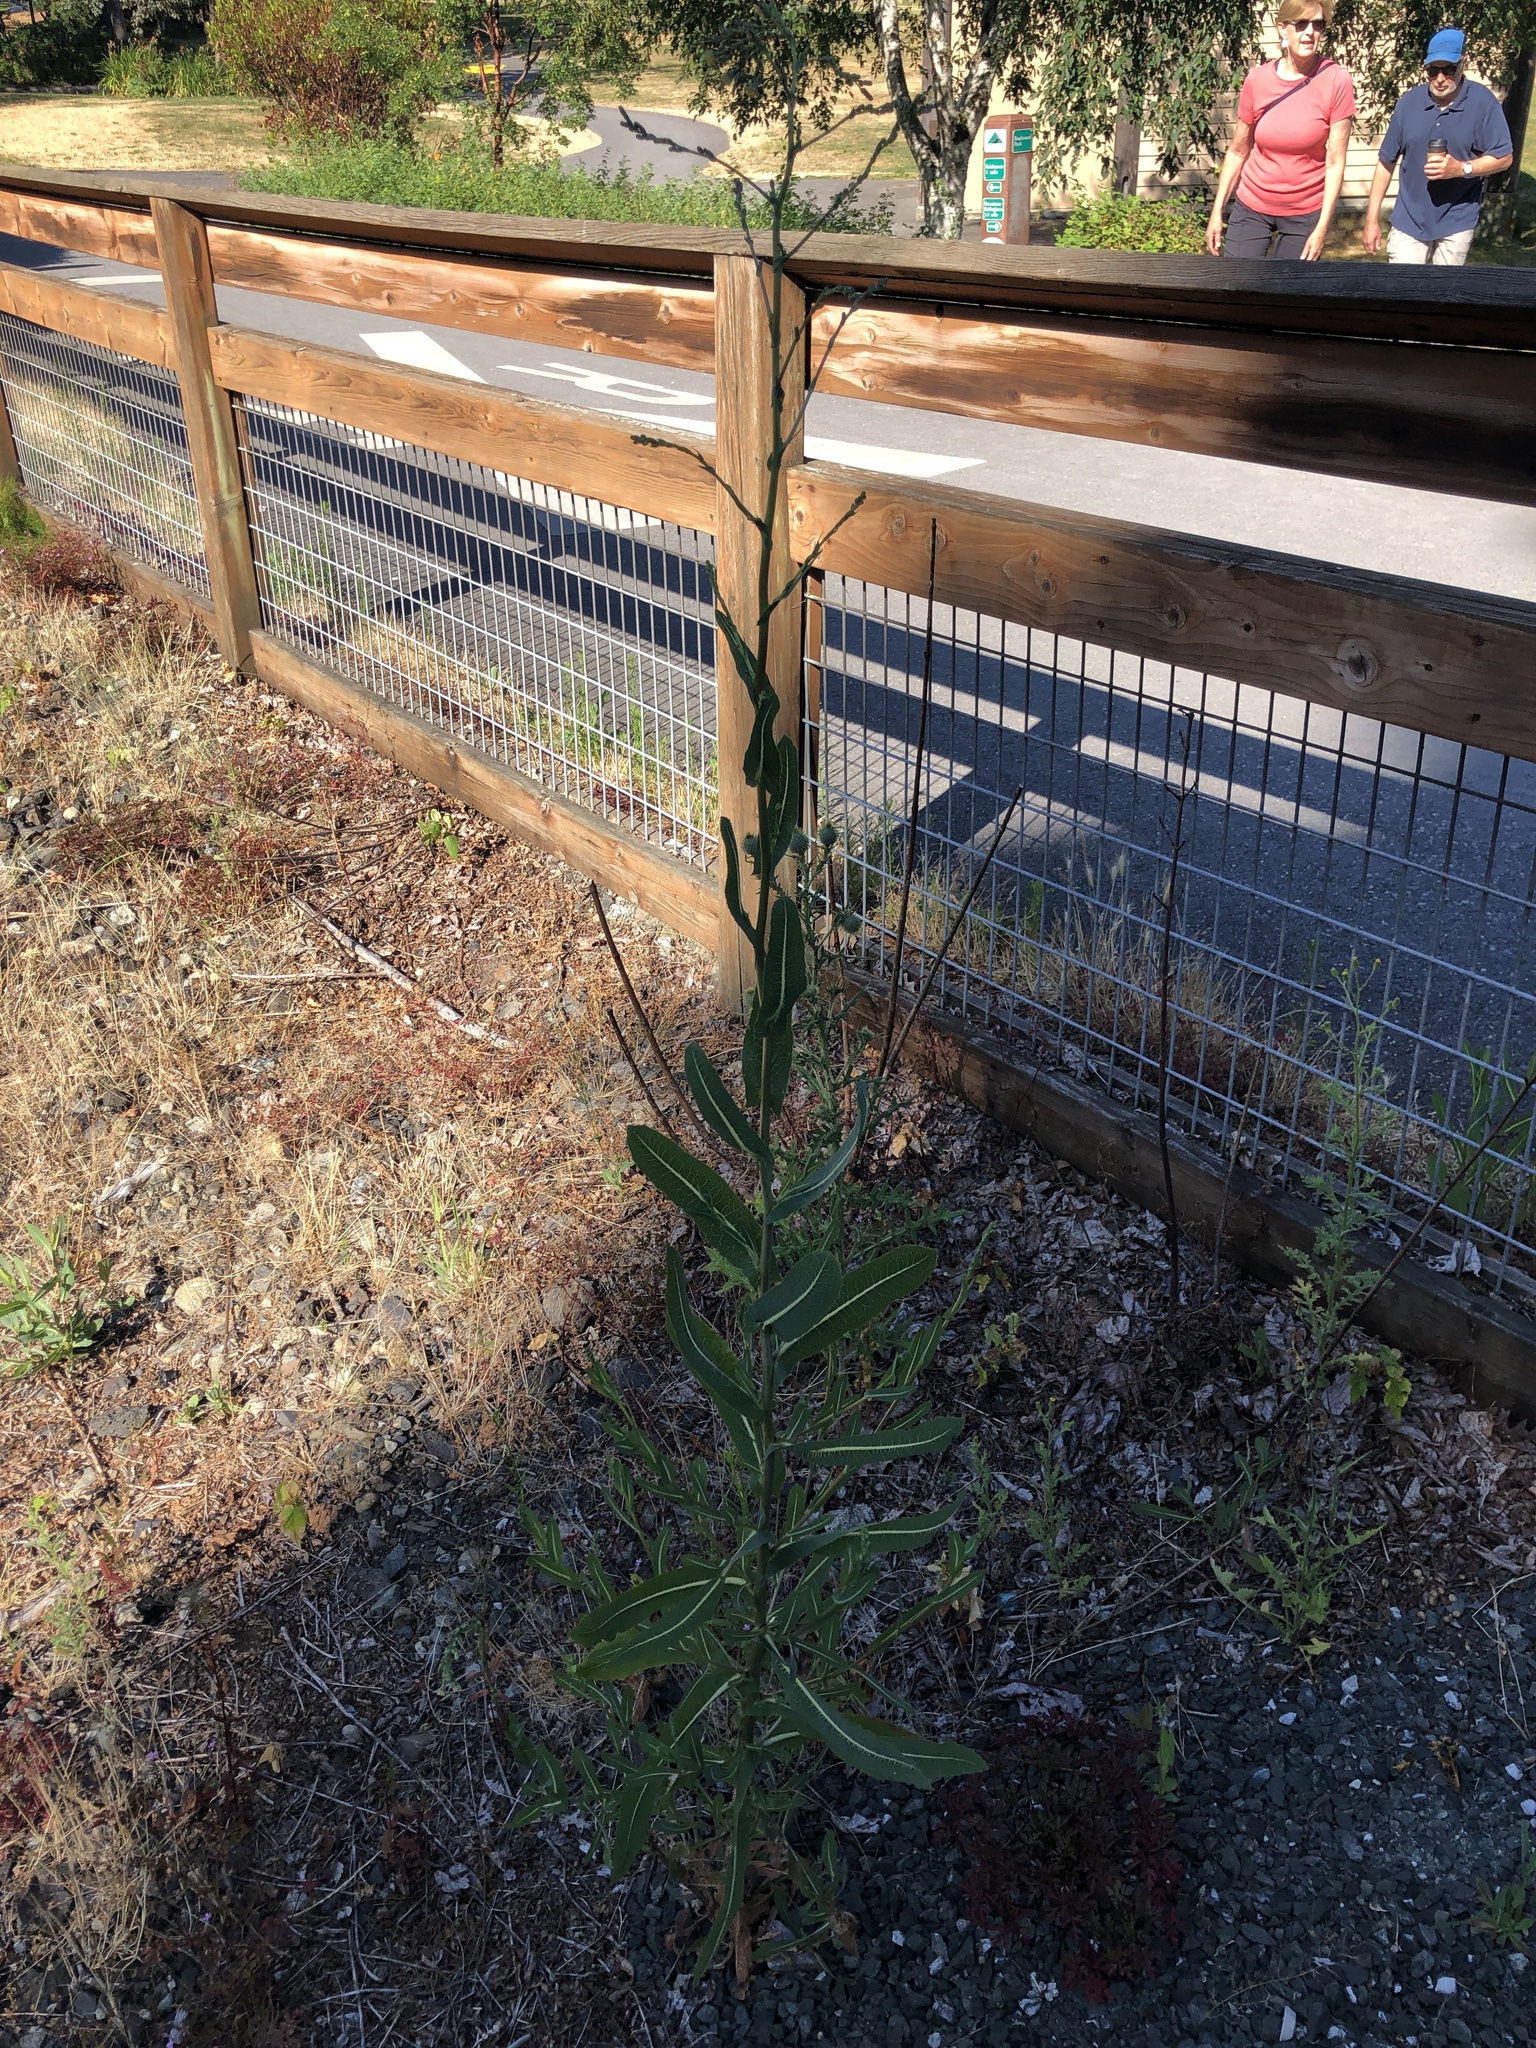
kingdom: Plantae
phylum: Tracheophyta
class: Magnoliopsida
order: Asterales
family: Asteraceae
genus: Lactuca
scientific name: Lactuca serriola
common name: Prickly lettuce
